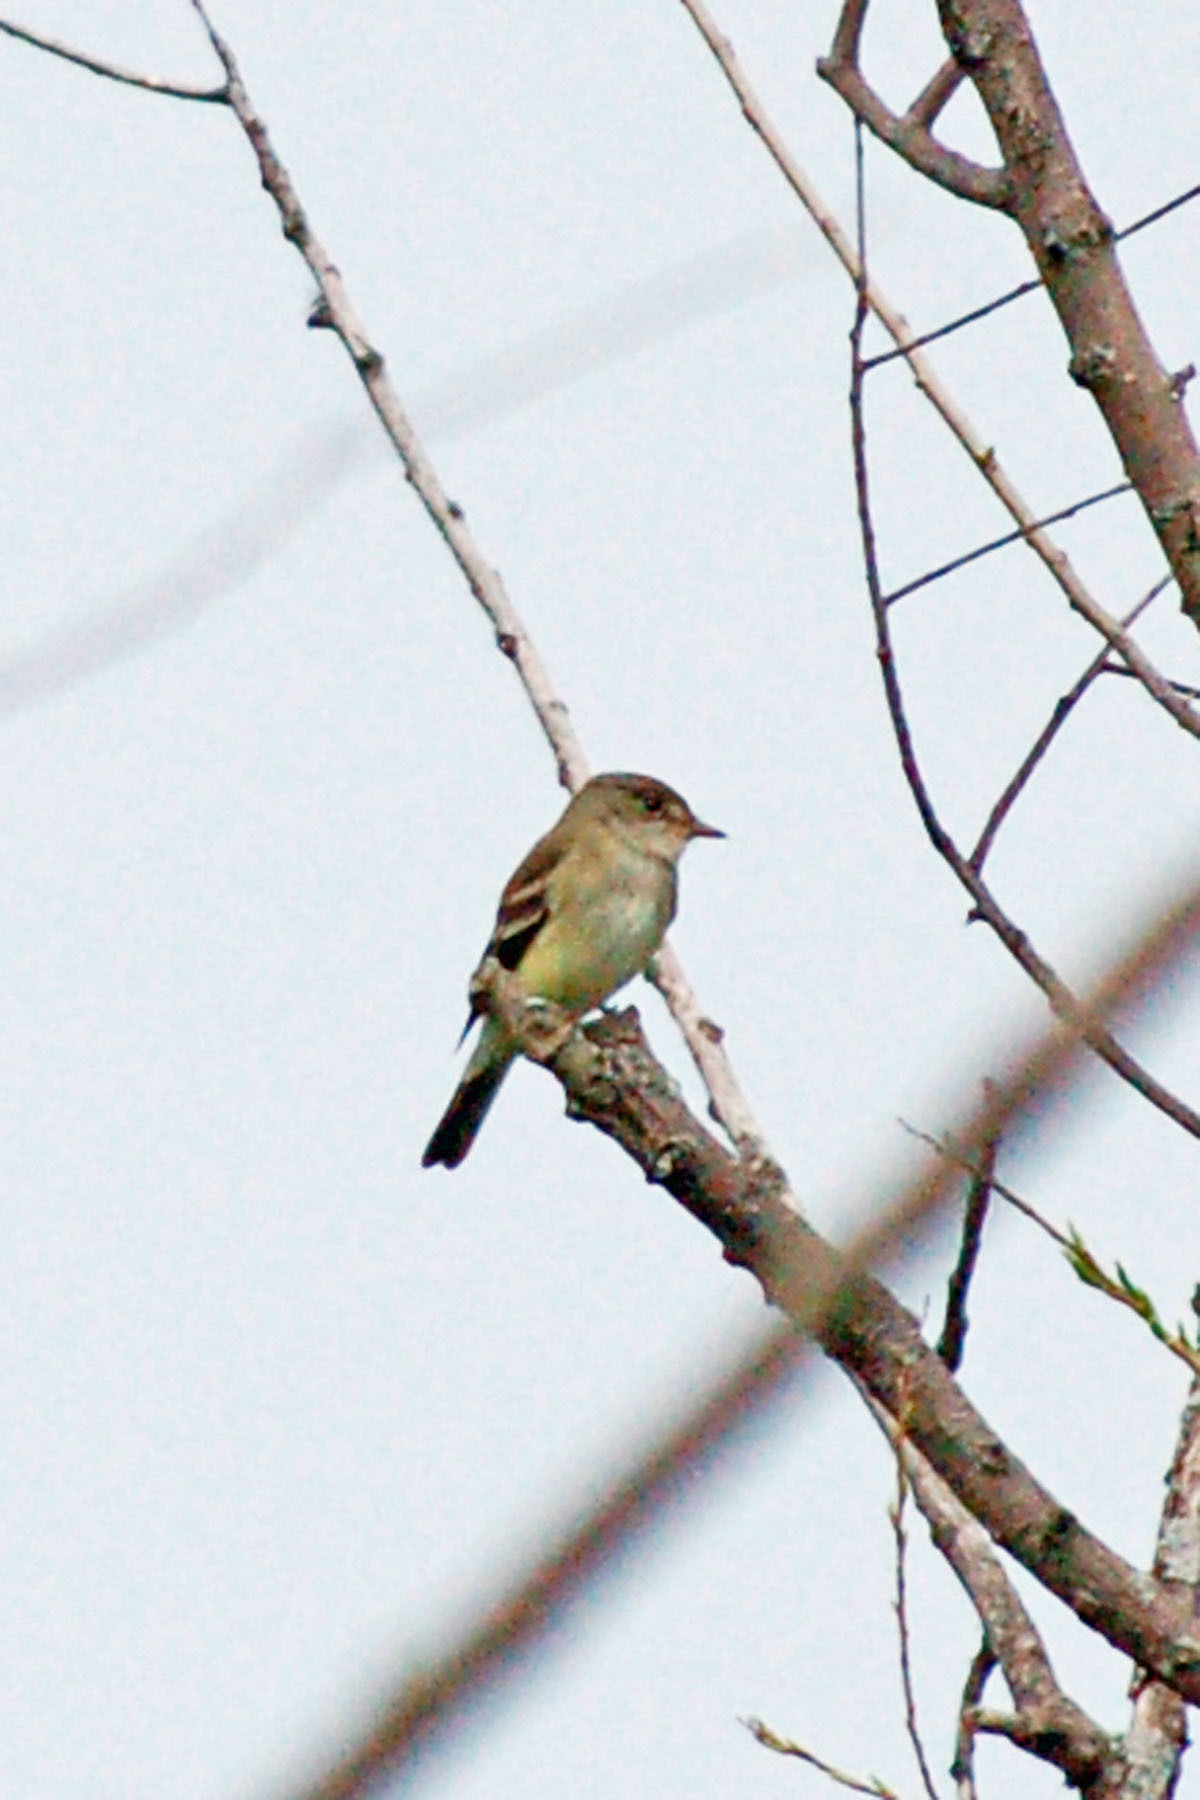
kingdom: Animalia
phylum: Chordata
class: Aves
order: Passeriformes
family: Tyrannidae
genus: Empidonax
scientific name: Empidonax traillii
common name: Willow flycatcher
